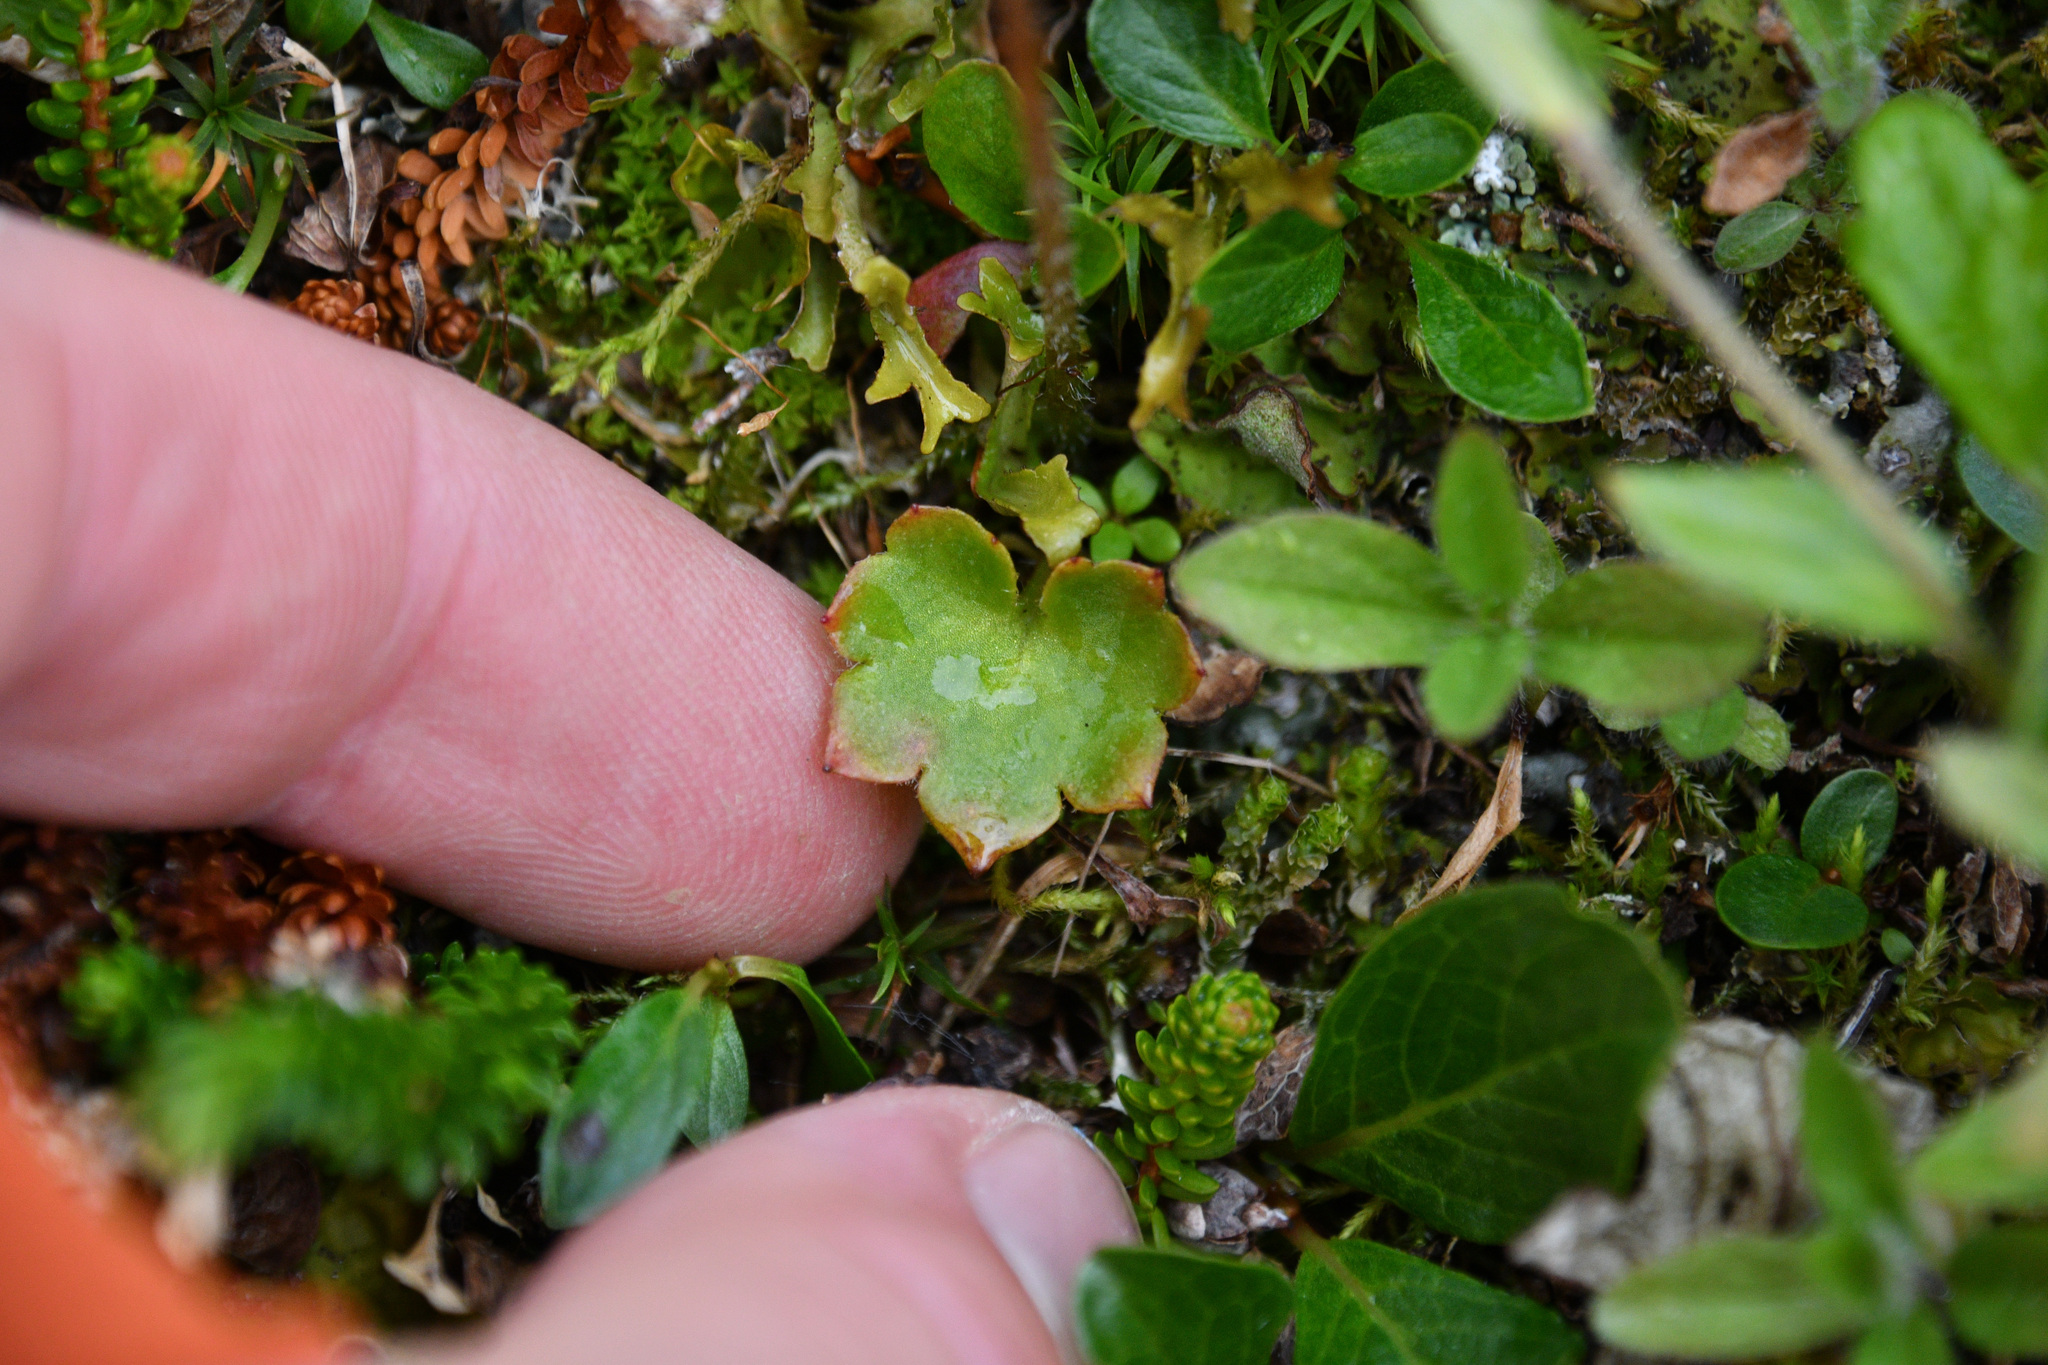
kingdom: Plantae
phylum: Tracheophyta
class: Magnoliopsida
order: Saxifragales
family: Saxifragaceae
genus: Micranthes
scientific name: Micranthes nelsoniana
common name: Nelson's saxifrage
